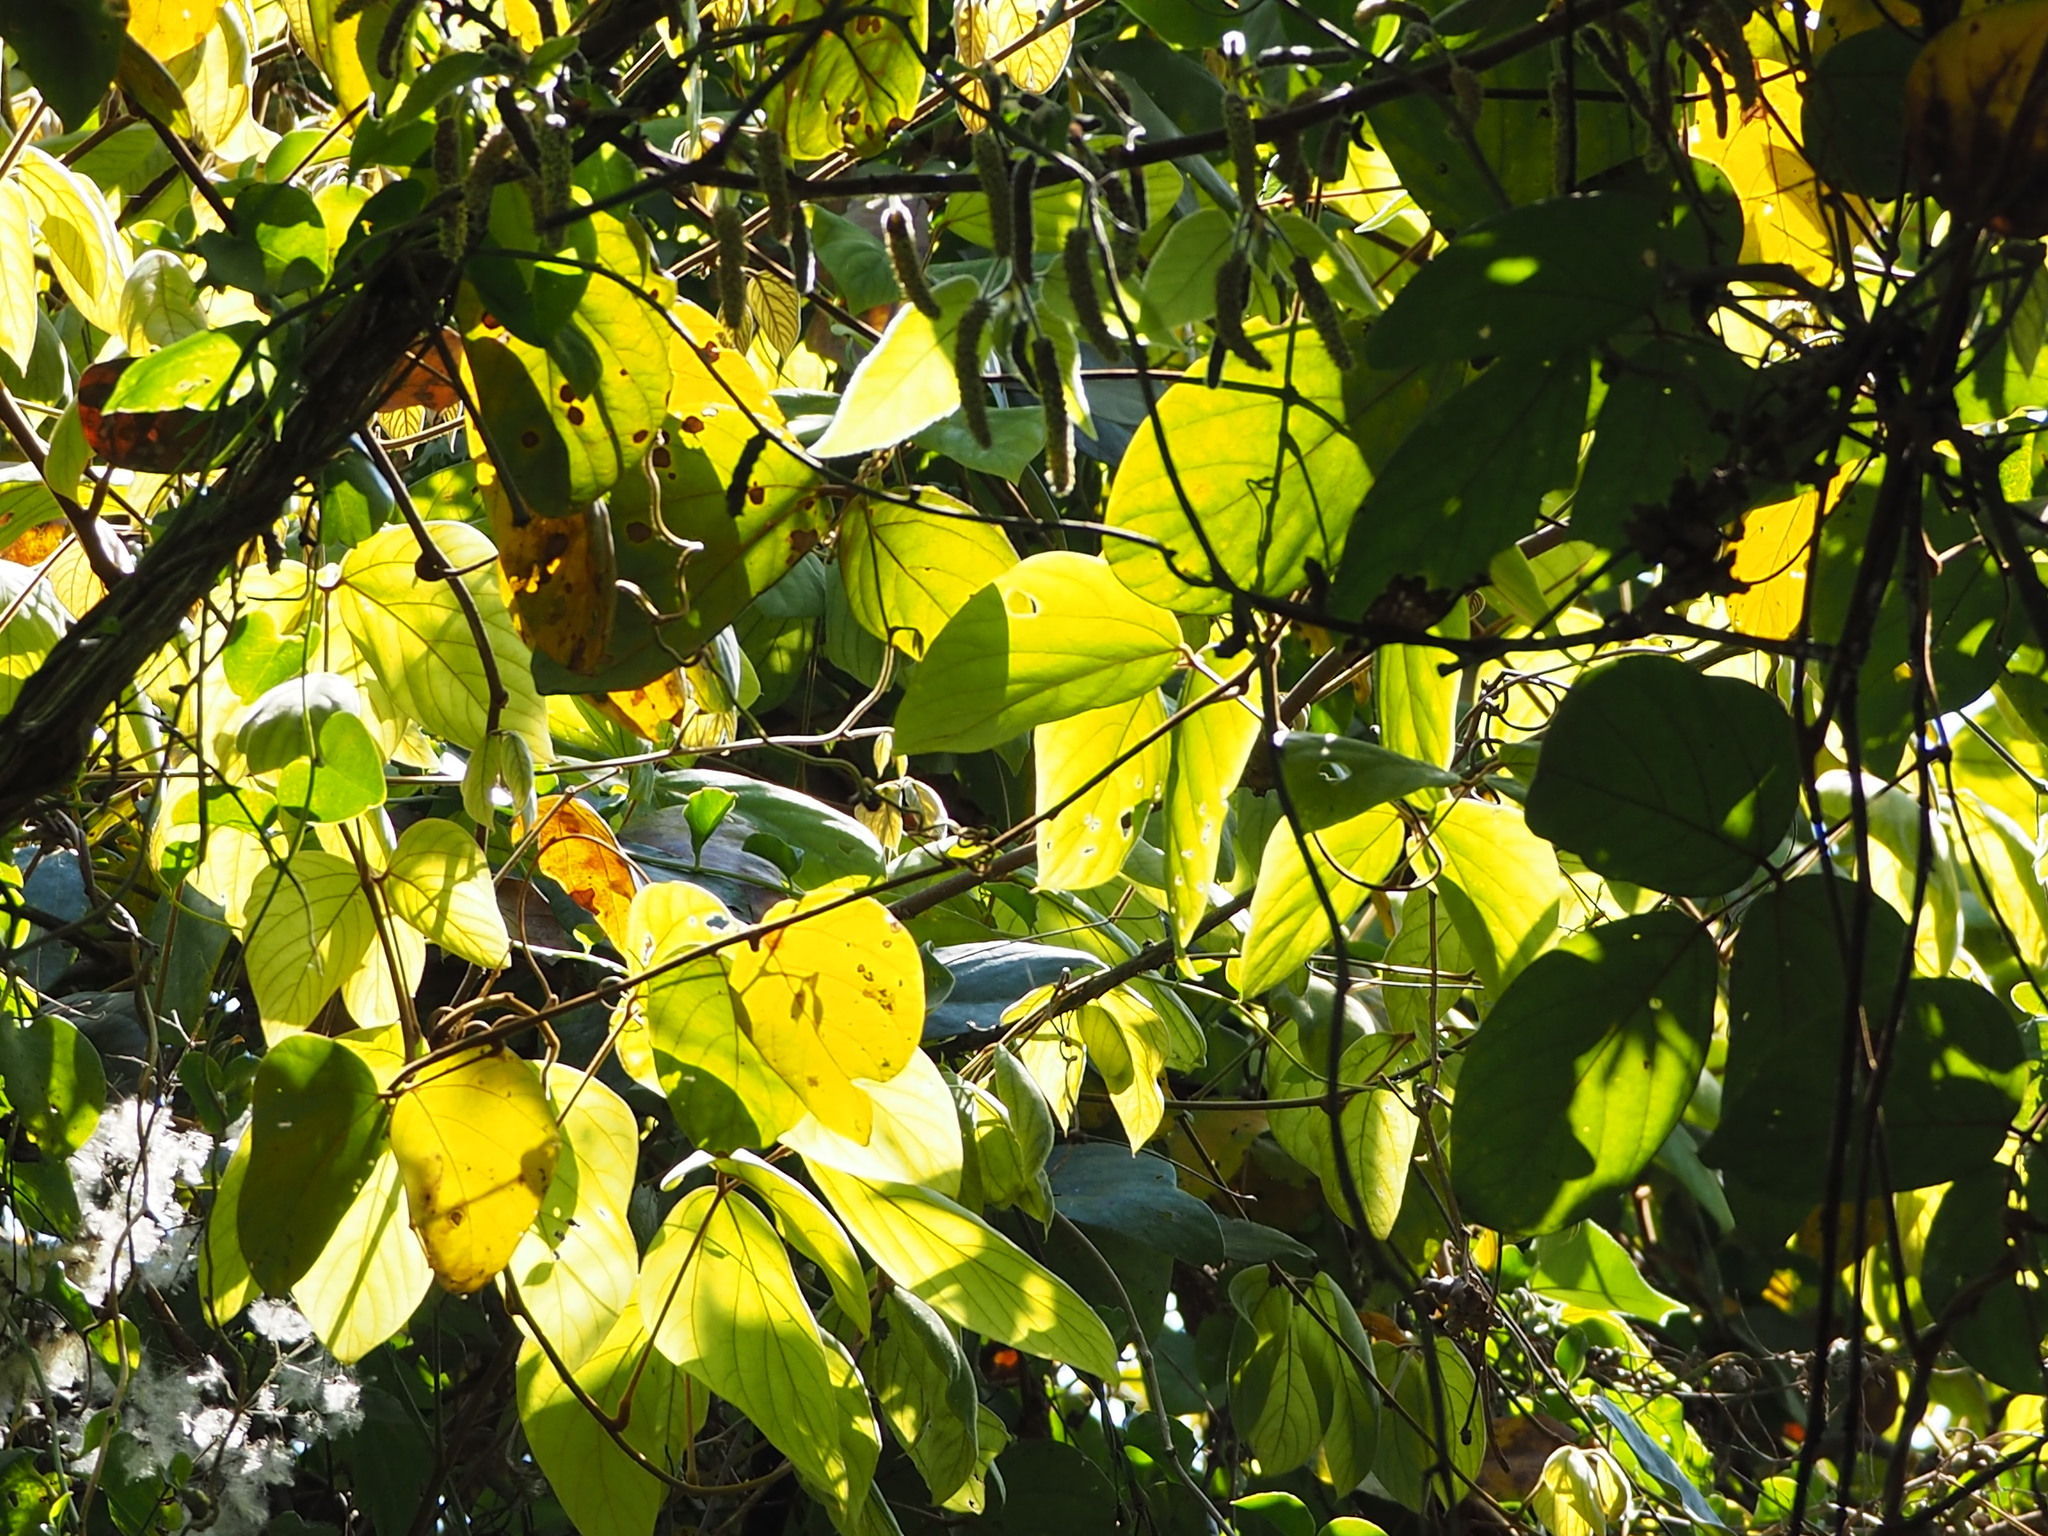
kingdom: Plantae
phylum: Tracheophyta
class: Magnoliopsida
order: Fabales
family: Fabaceae
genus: Mucuna
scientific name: Mucuna macrocarpa
